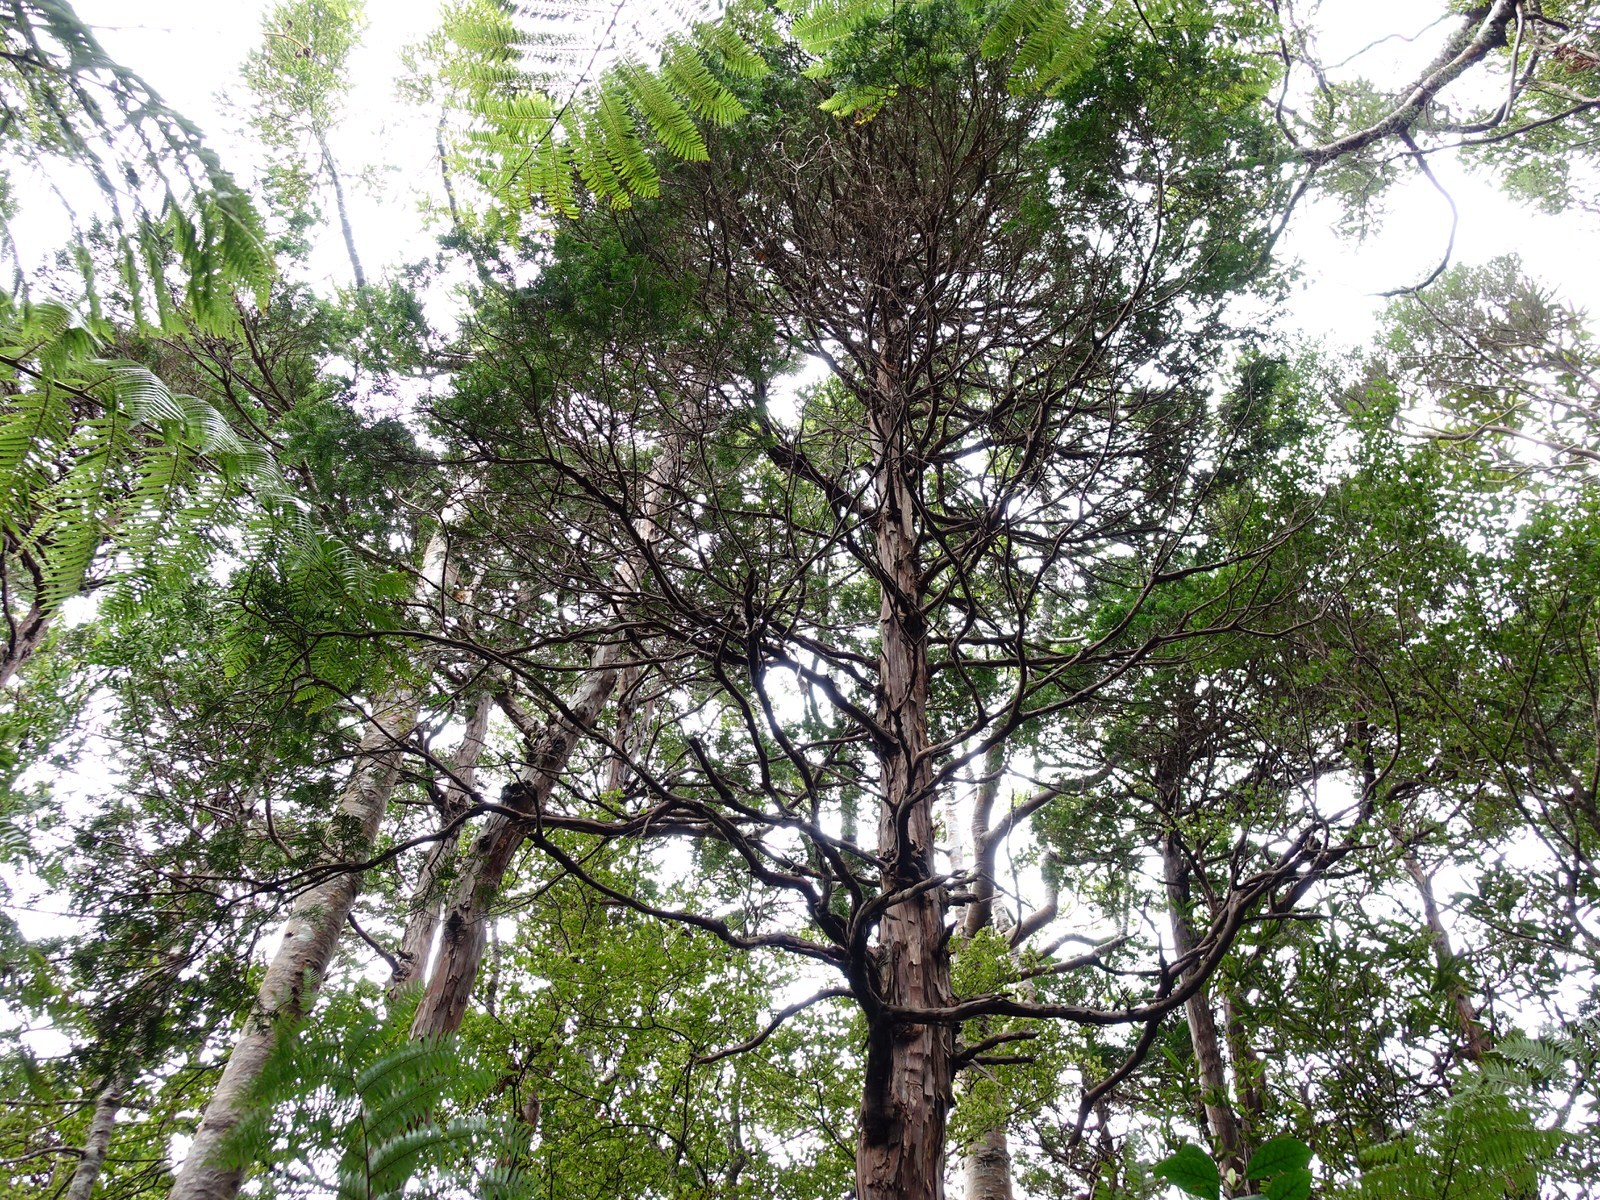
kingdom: Plantae
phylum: Tracheophyta
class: Pinopsida
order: Pinales
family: Cupressaceae
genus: Libocedrus
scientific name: Libocedrus plumosa
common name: New zealand cedar
